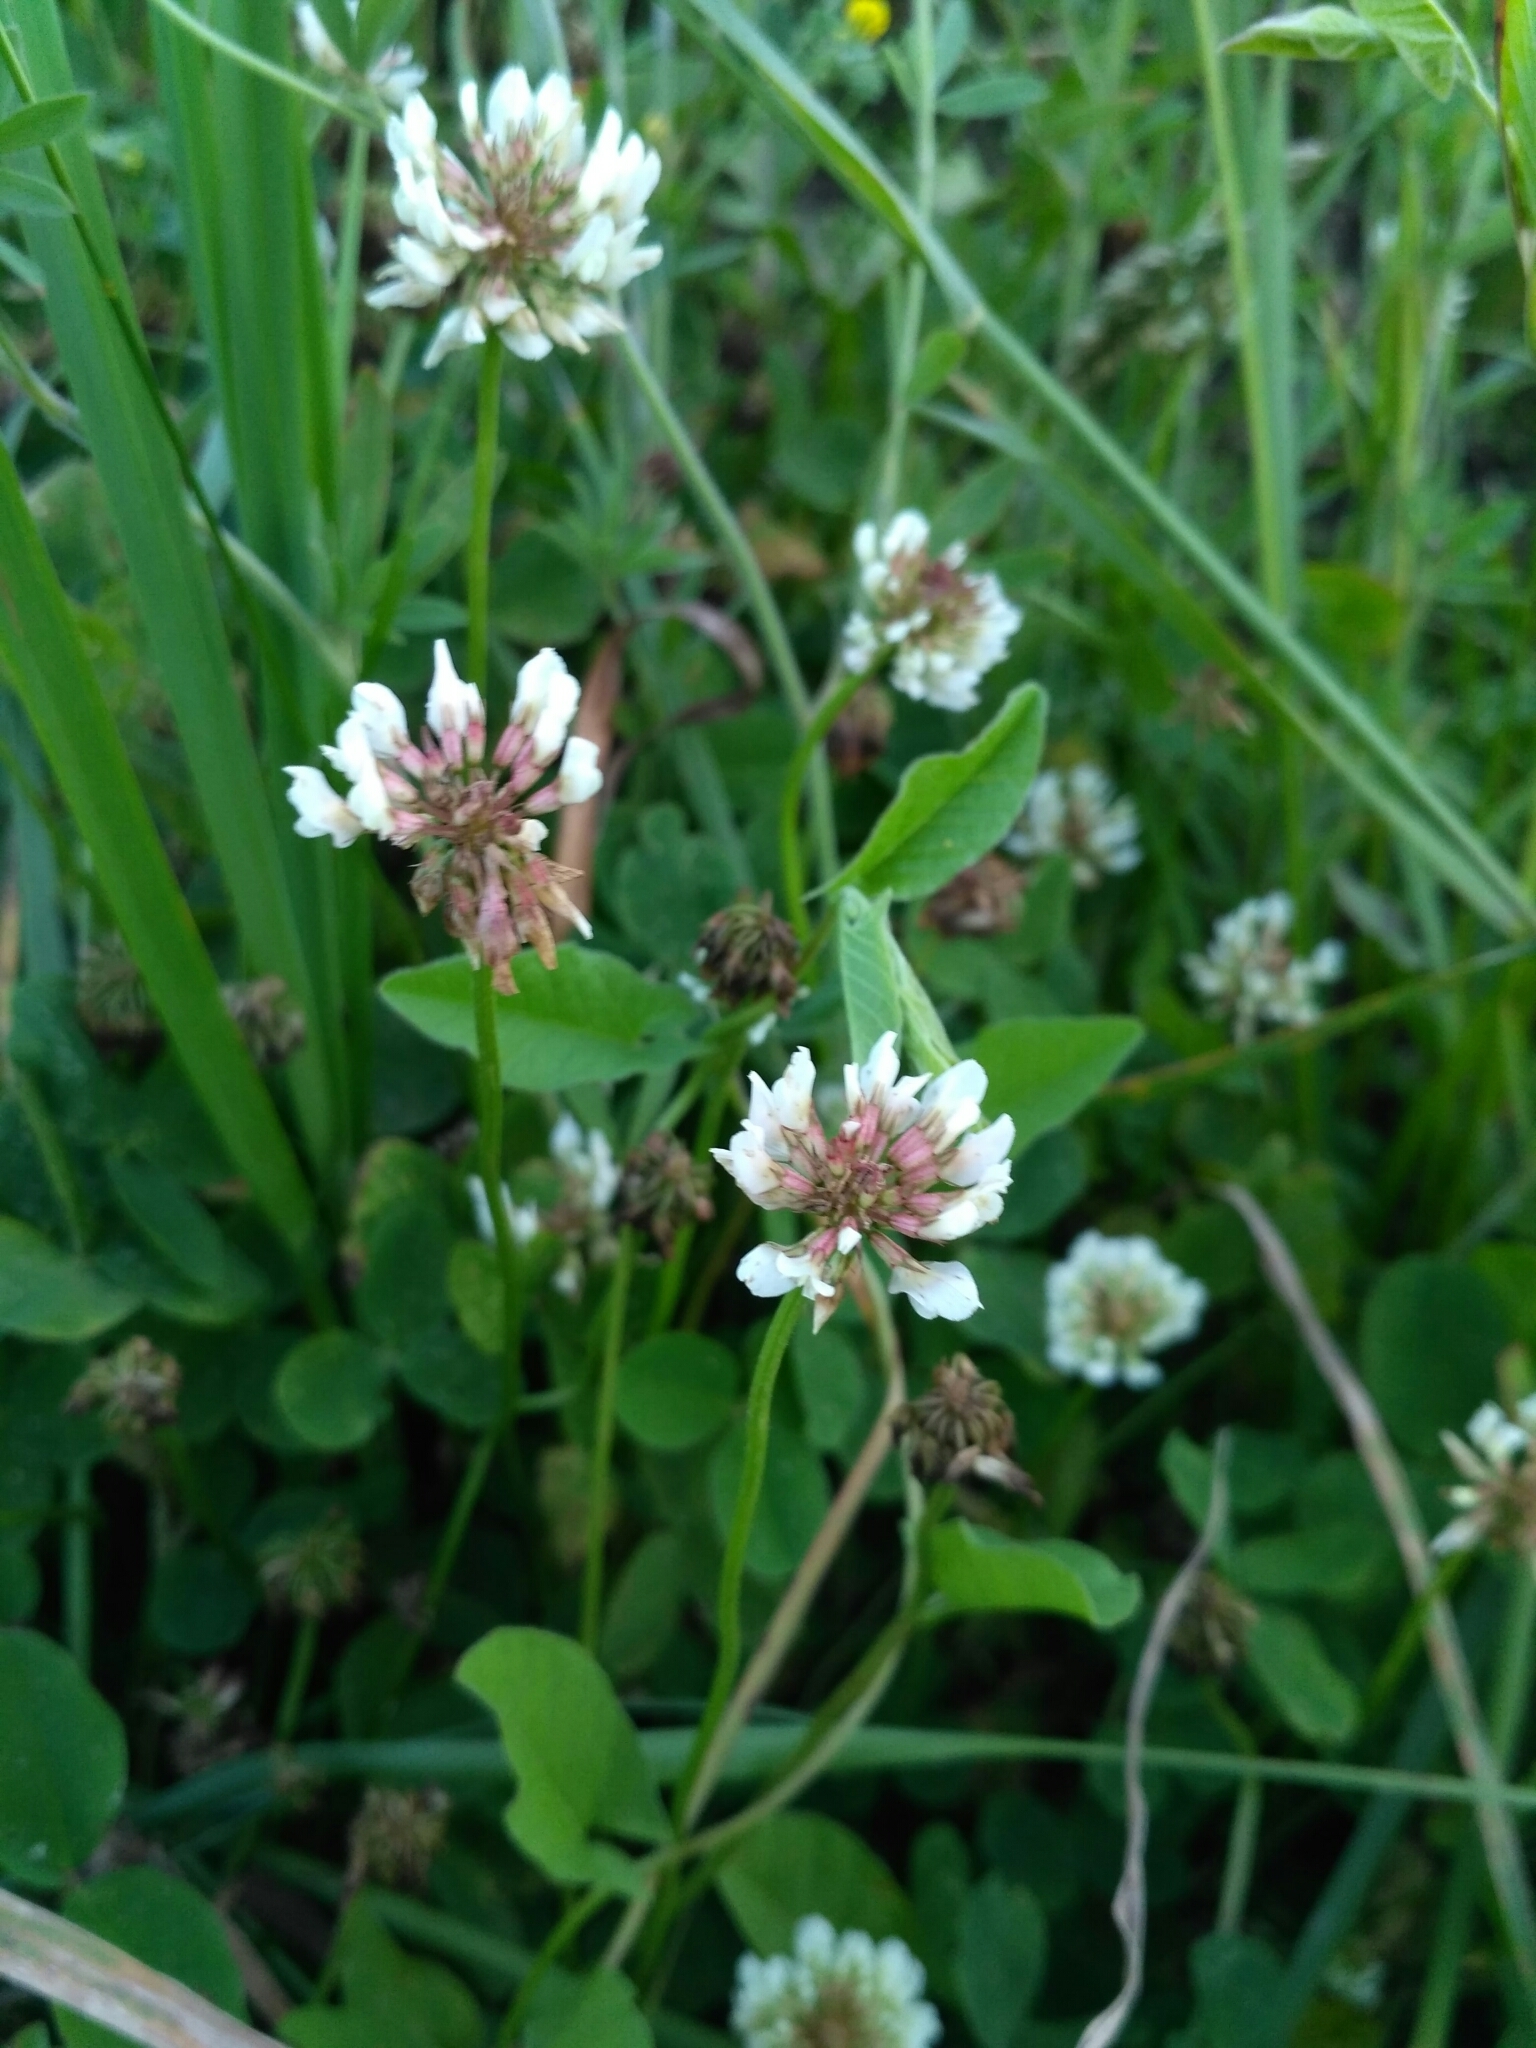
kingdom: Plantae
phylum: Tracheophyta
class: Magnoliopsida
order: Fabales
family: Fabaceae
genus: Trifolium
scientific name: Trifolium repens
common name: White clover
